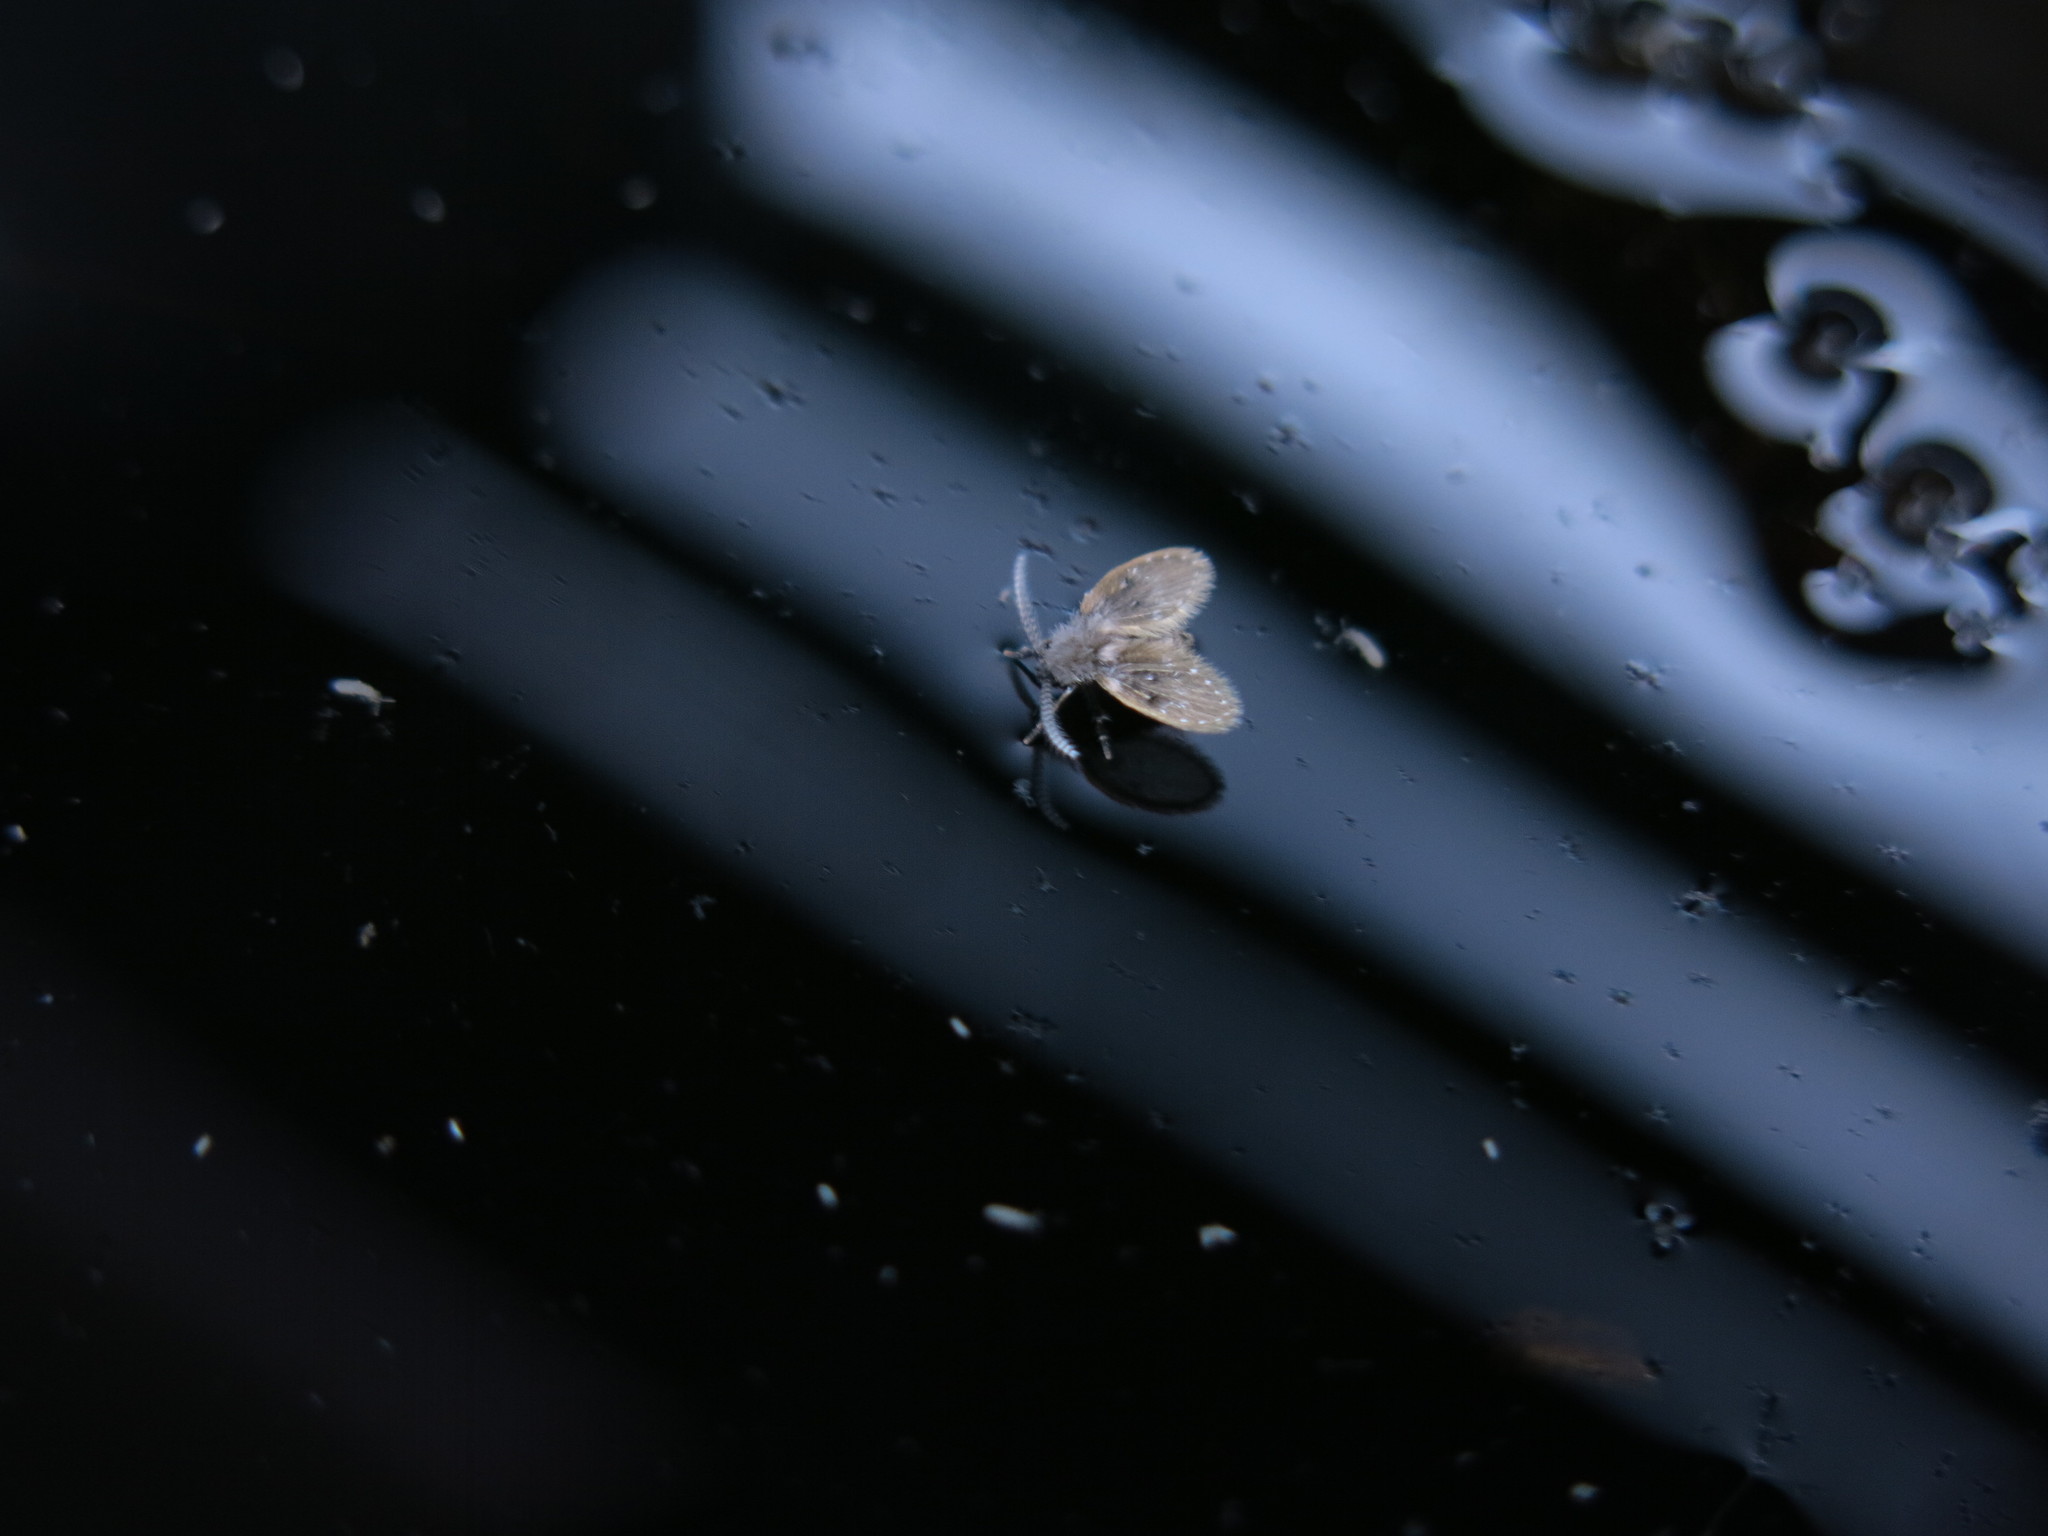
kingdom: Animalia
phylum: Arthropoda
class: Insecta
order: Diptera
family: Psychodidae
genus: Clogmia
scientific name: Clogmia albipunctatus
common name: White-spotted moth fly
